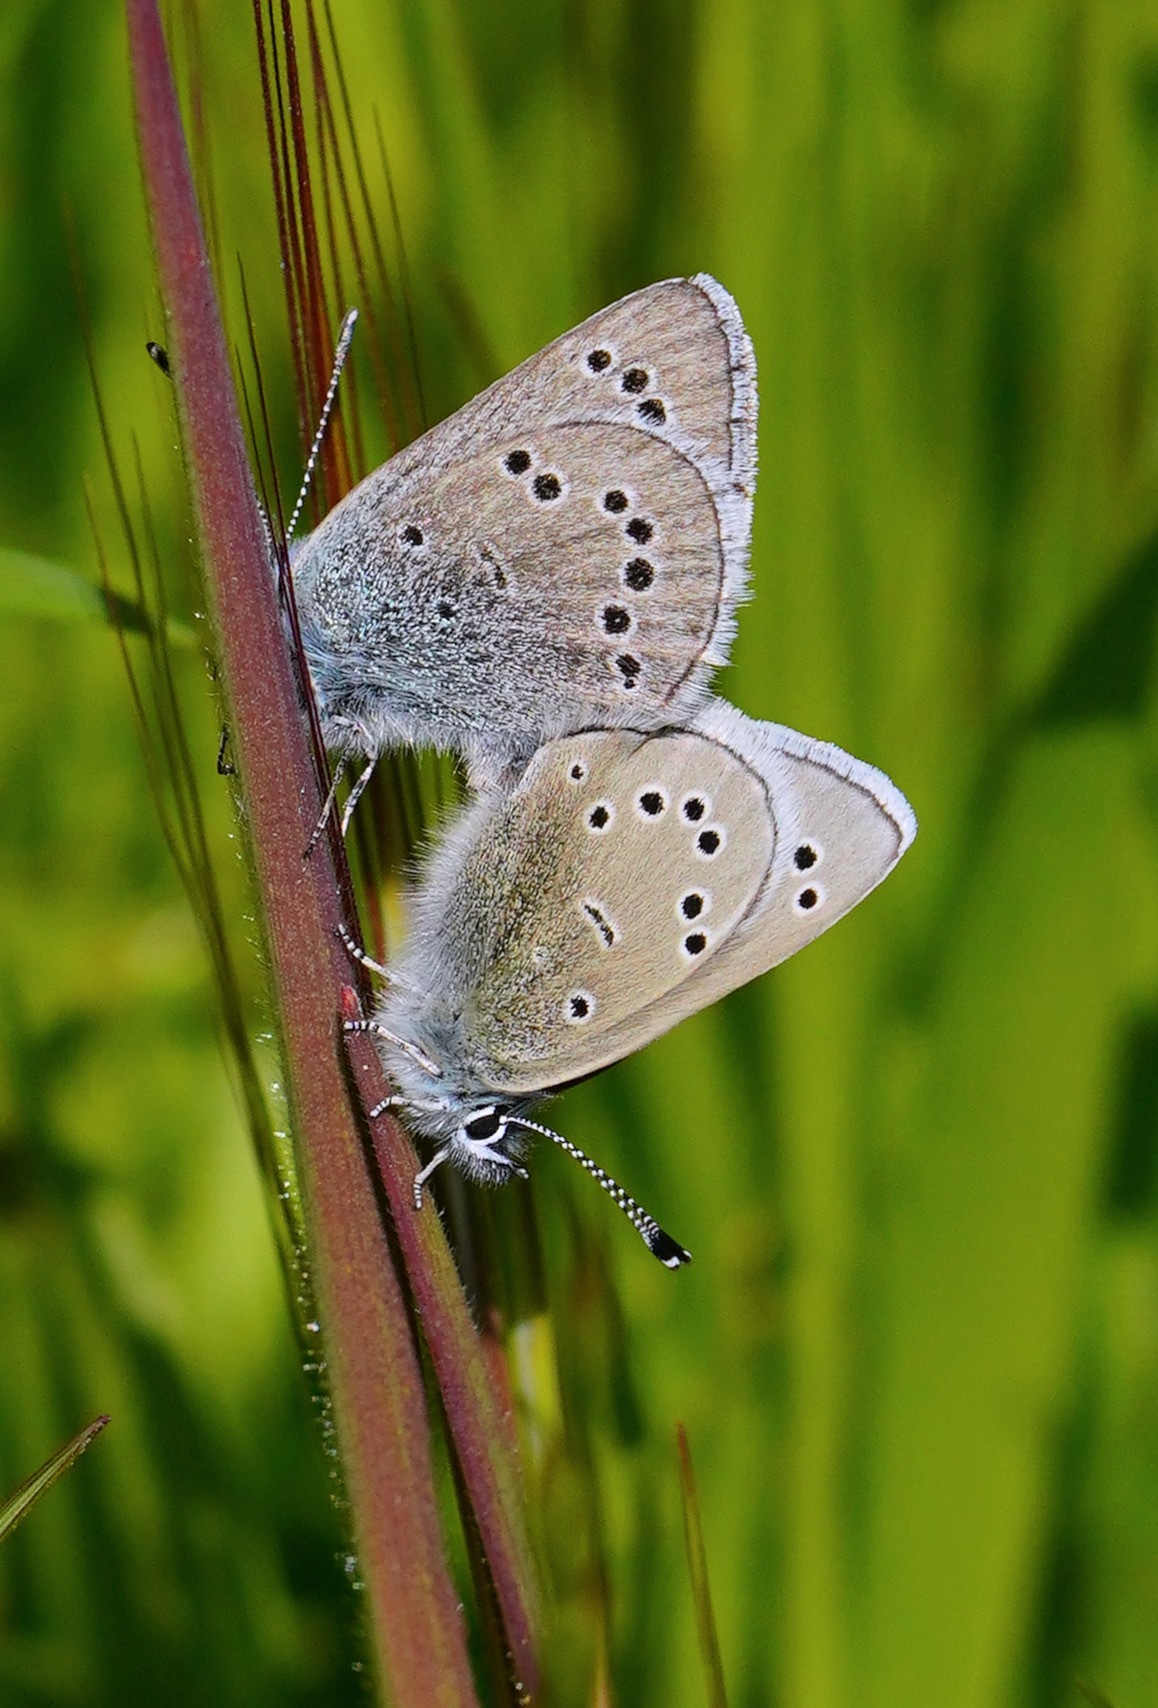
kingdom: Animalia
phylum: Arthropoda
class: Insecta
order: Lepidoptera
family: Lycaenidae
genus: Glaucopsyche
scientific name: Glaucopsyche lygdamus
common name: Silvery blue
